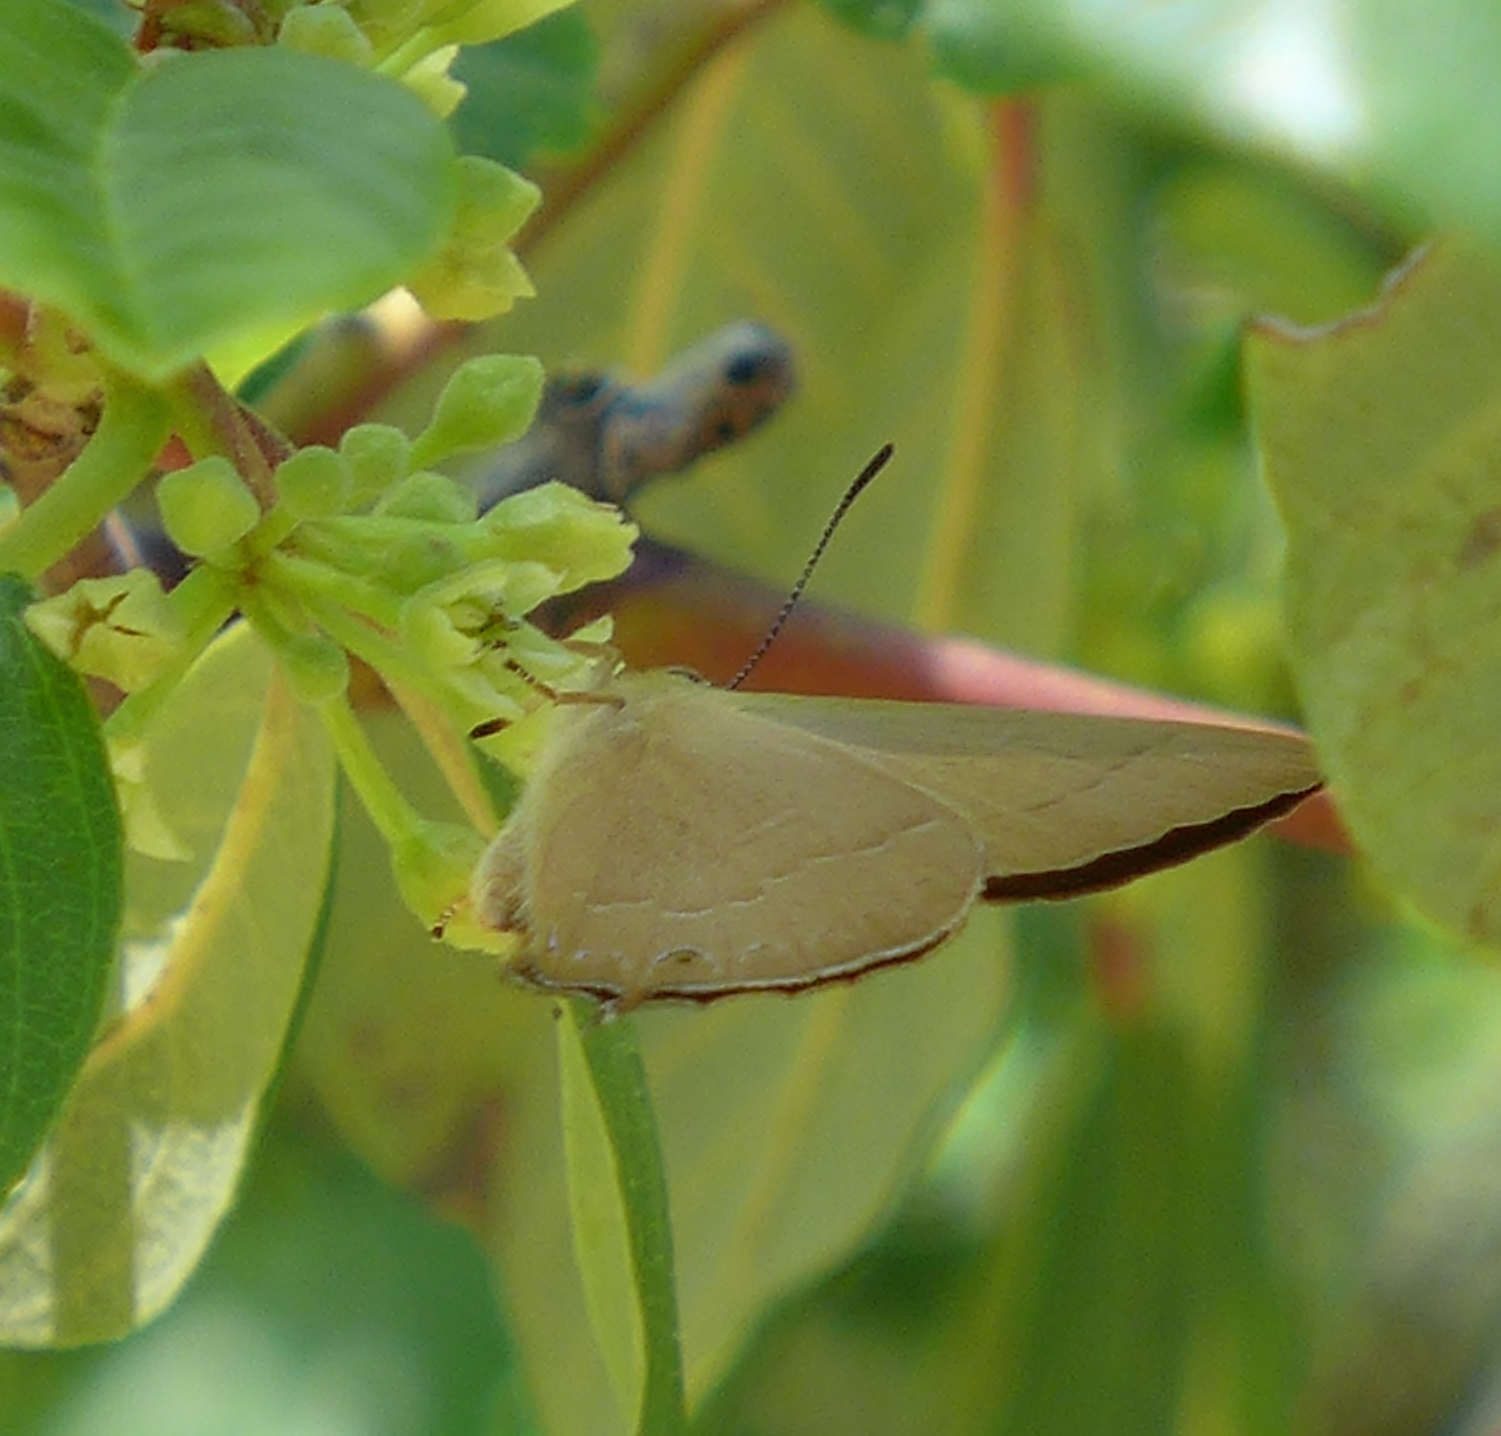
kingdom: Animalia
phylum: Arthropoda
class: Insecta
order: Lepidoptera
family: Lycaenidae
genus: Habrodais
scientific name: Habrodais grunus
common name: Golden hairstreak
